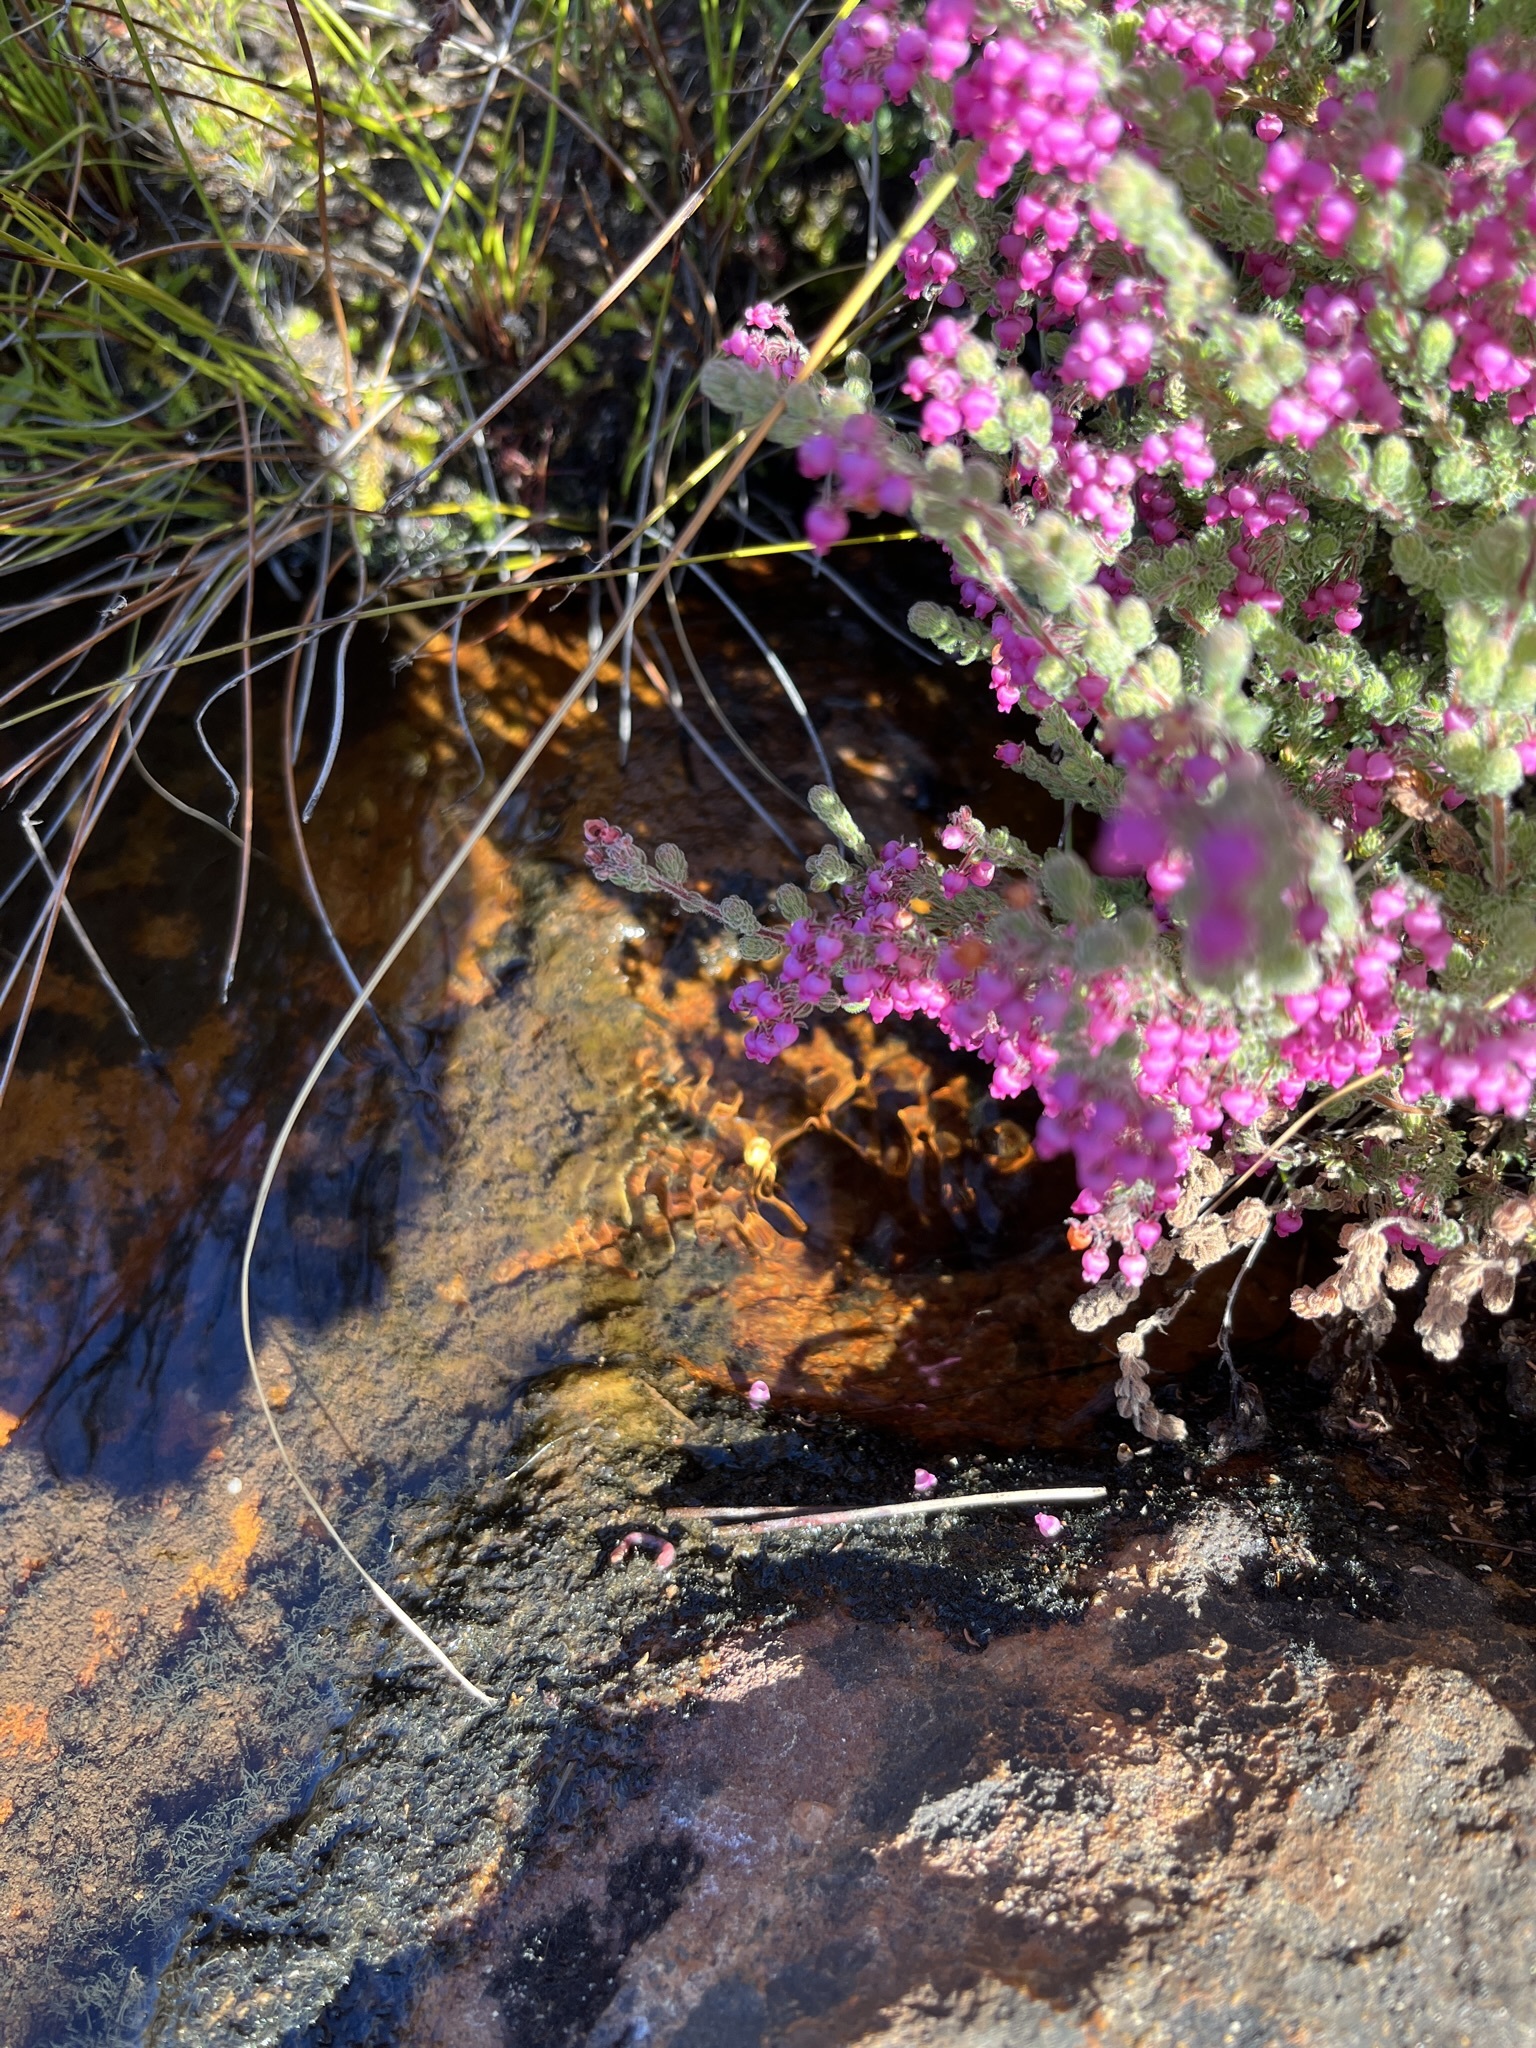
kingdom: Plantae
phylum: Tracheophyta
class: Magnoliopsida
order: Ericales
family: Ericaceae
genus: Erica
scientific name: Erica bergiana
